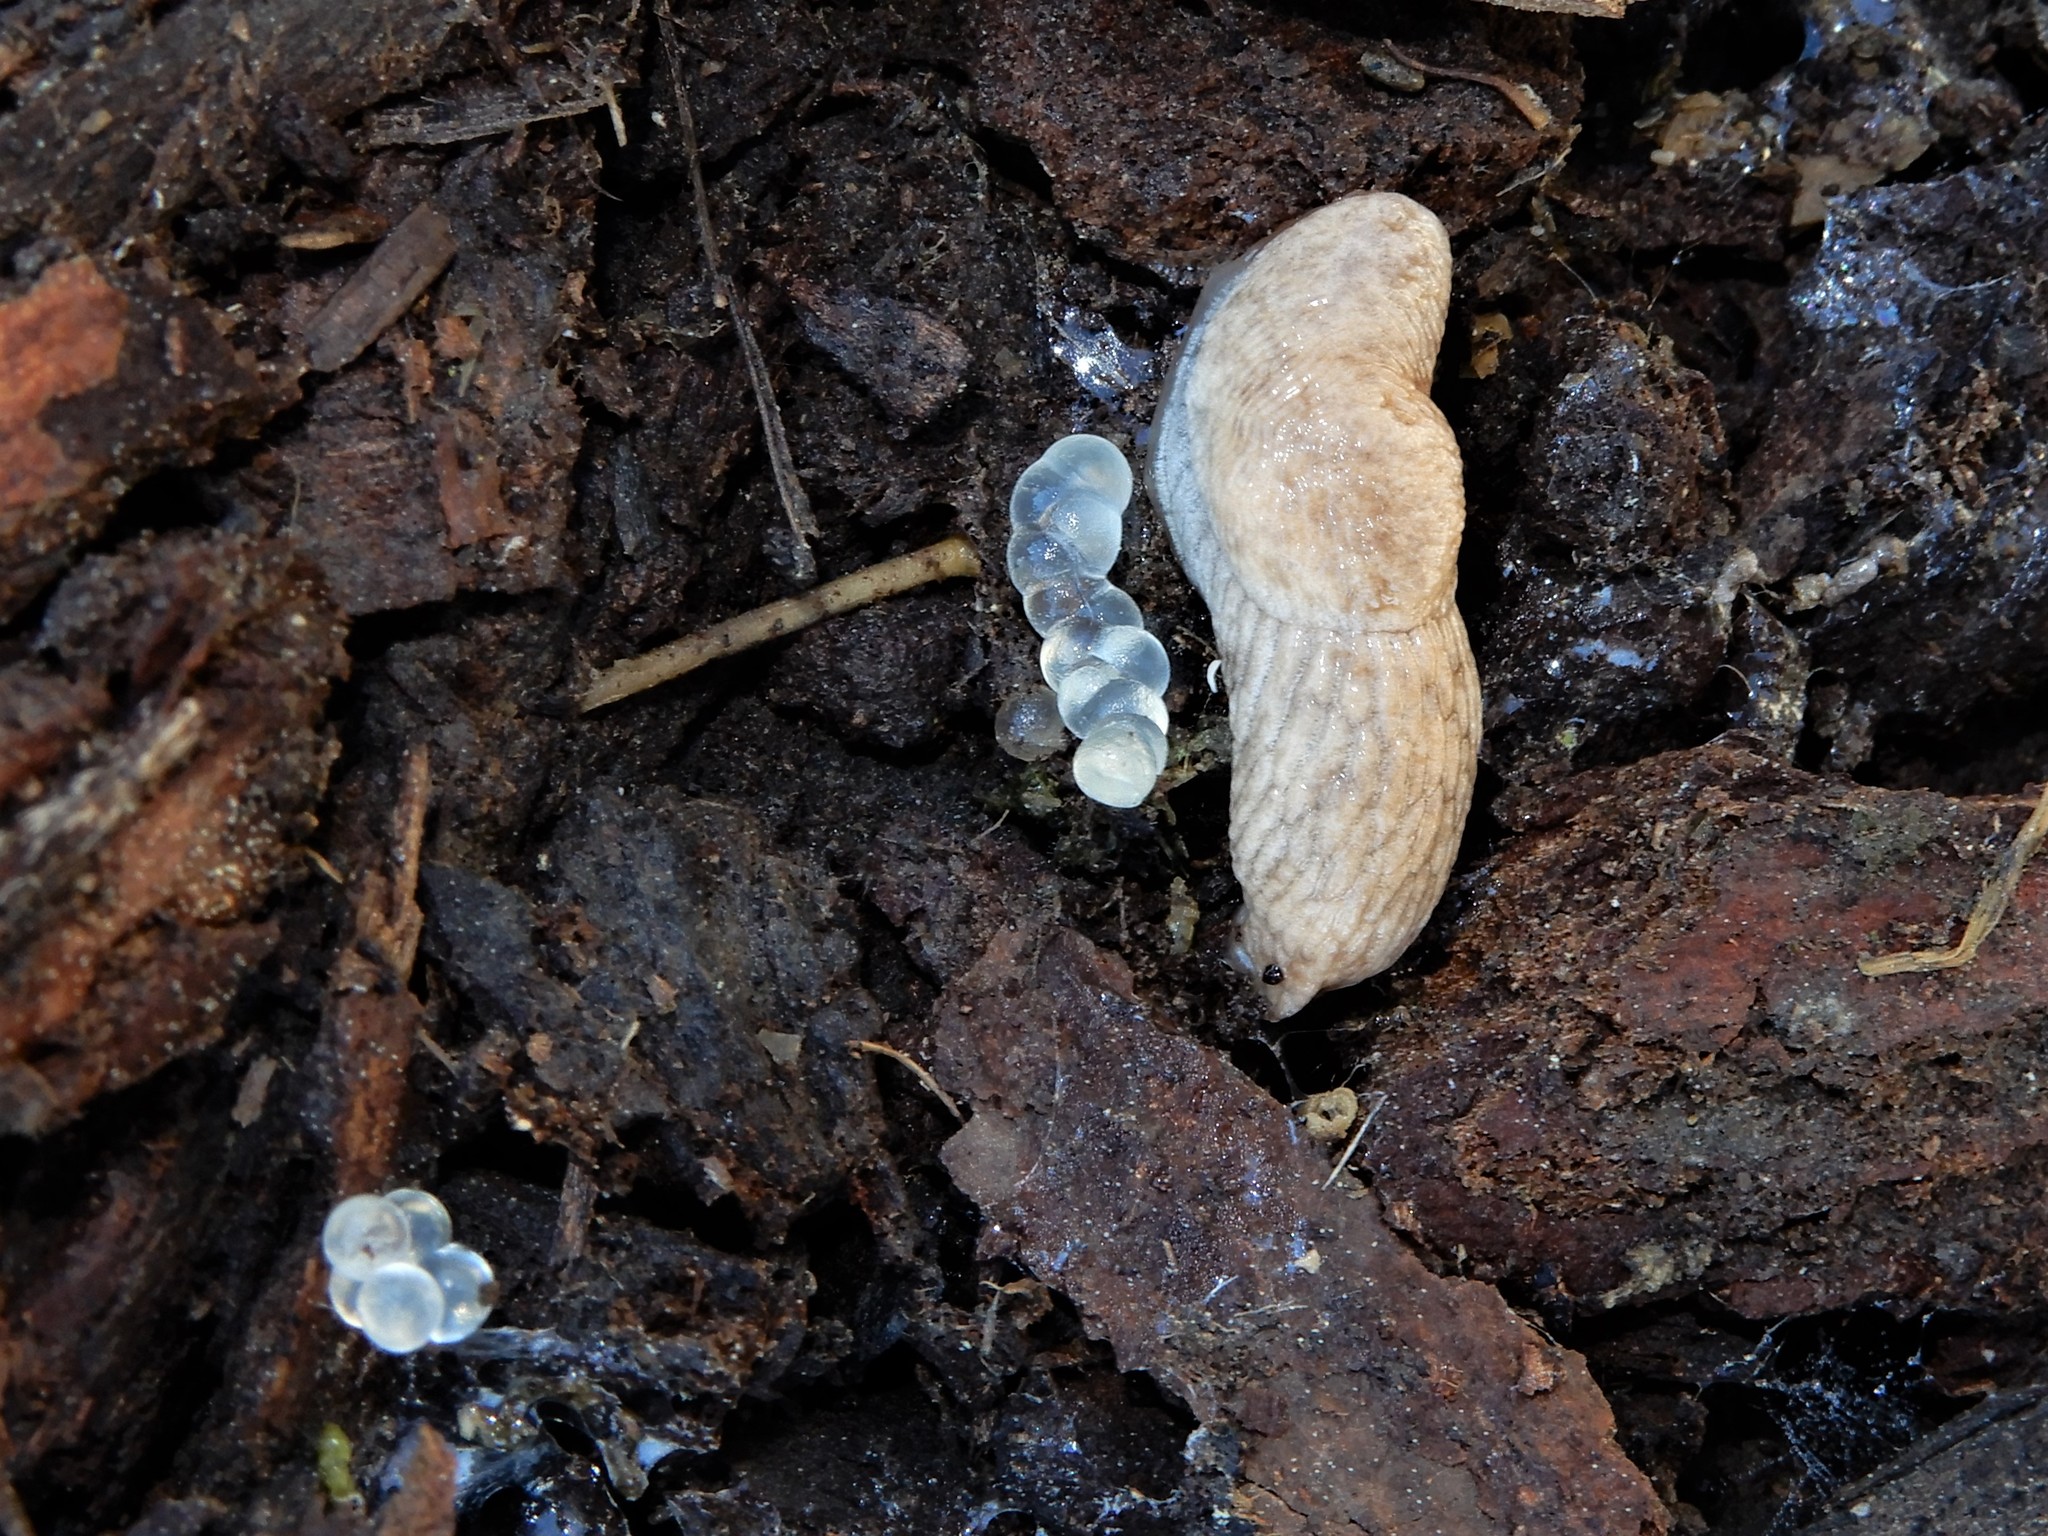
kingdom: Animalia
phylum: Mollusca
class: Gastropoda
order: Stylommatophora
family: Agriolimacidae
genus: Deroceras
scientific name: Deroceras reticulatum
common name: Gray field slug
